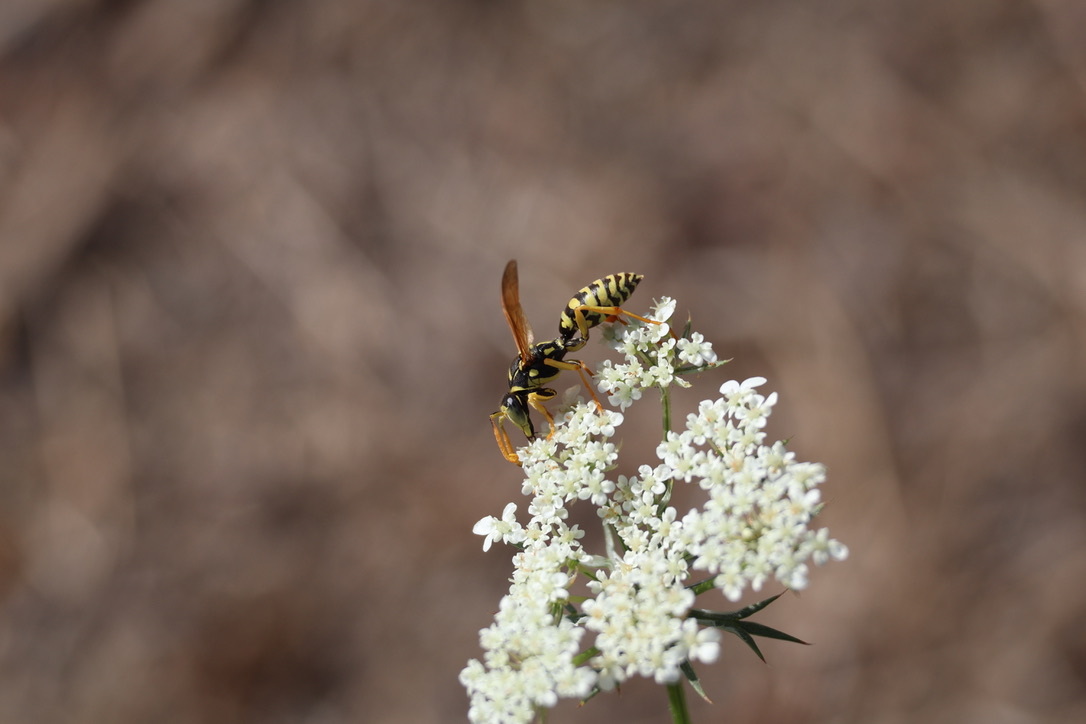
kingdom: Animalia
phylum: Arthropoda
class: Insecta
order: Hymenoptera
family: Eumenidae
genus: Polistes
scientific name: Polistes dominula
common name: Paper wasp
